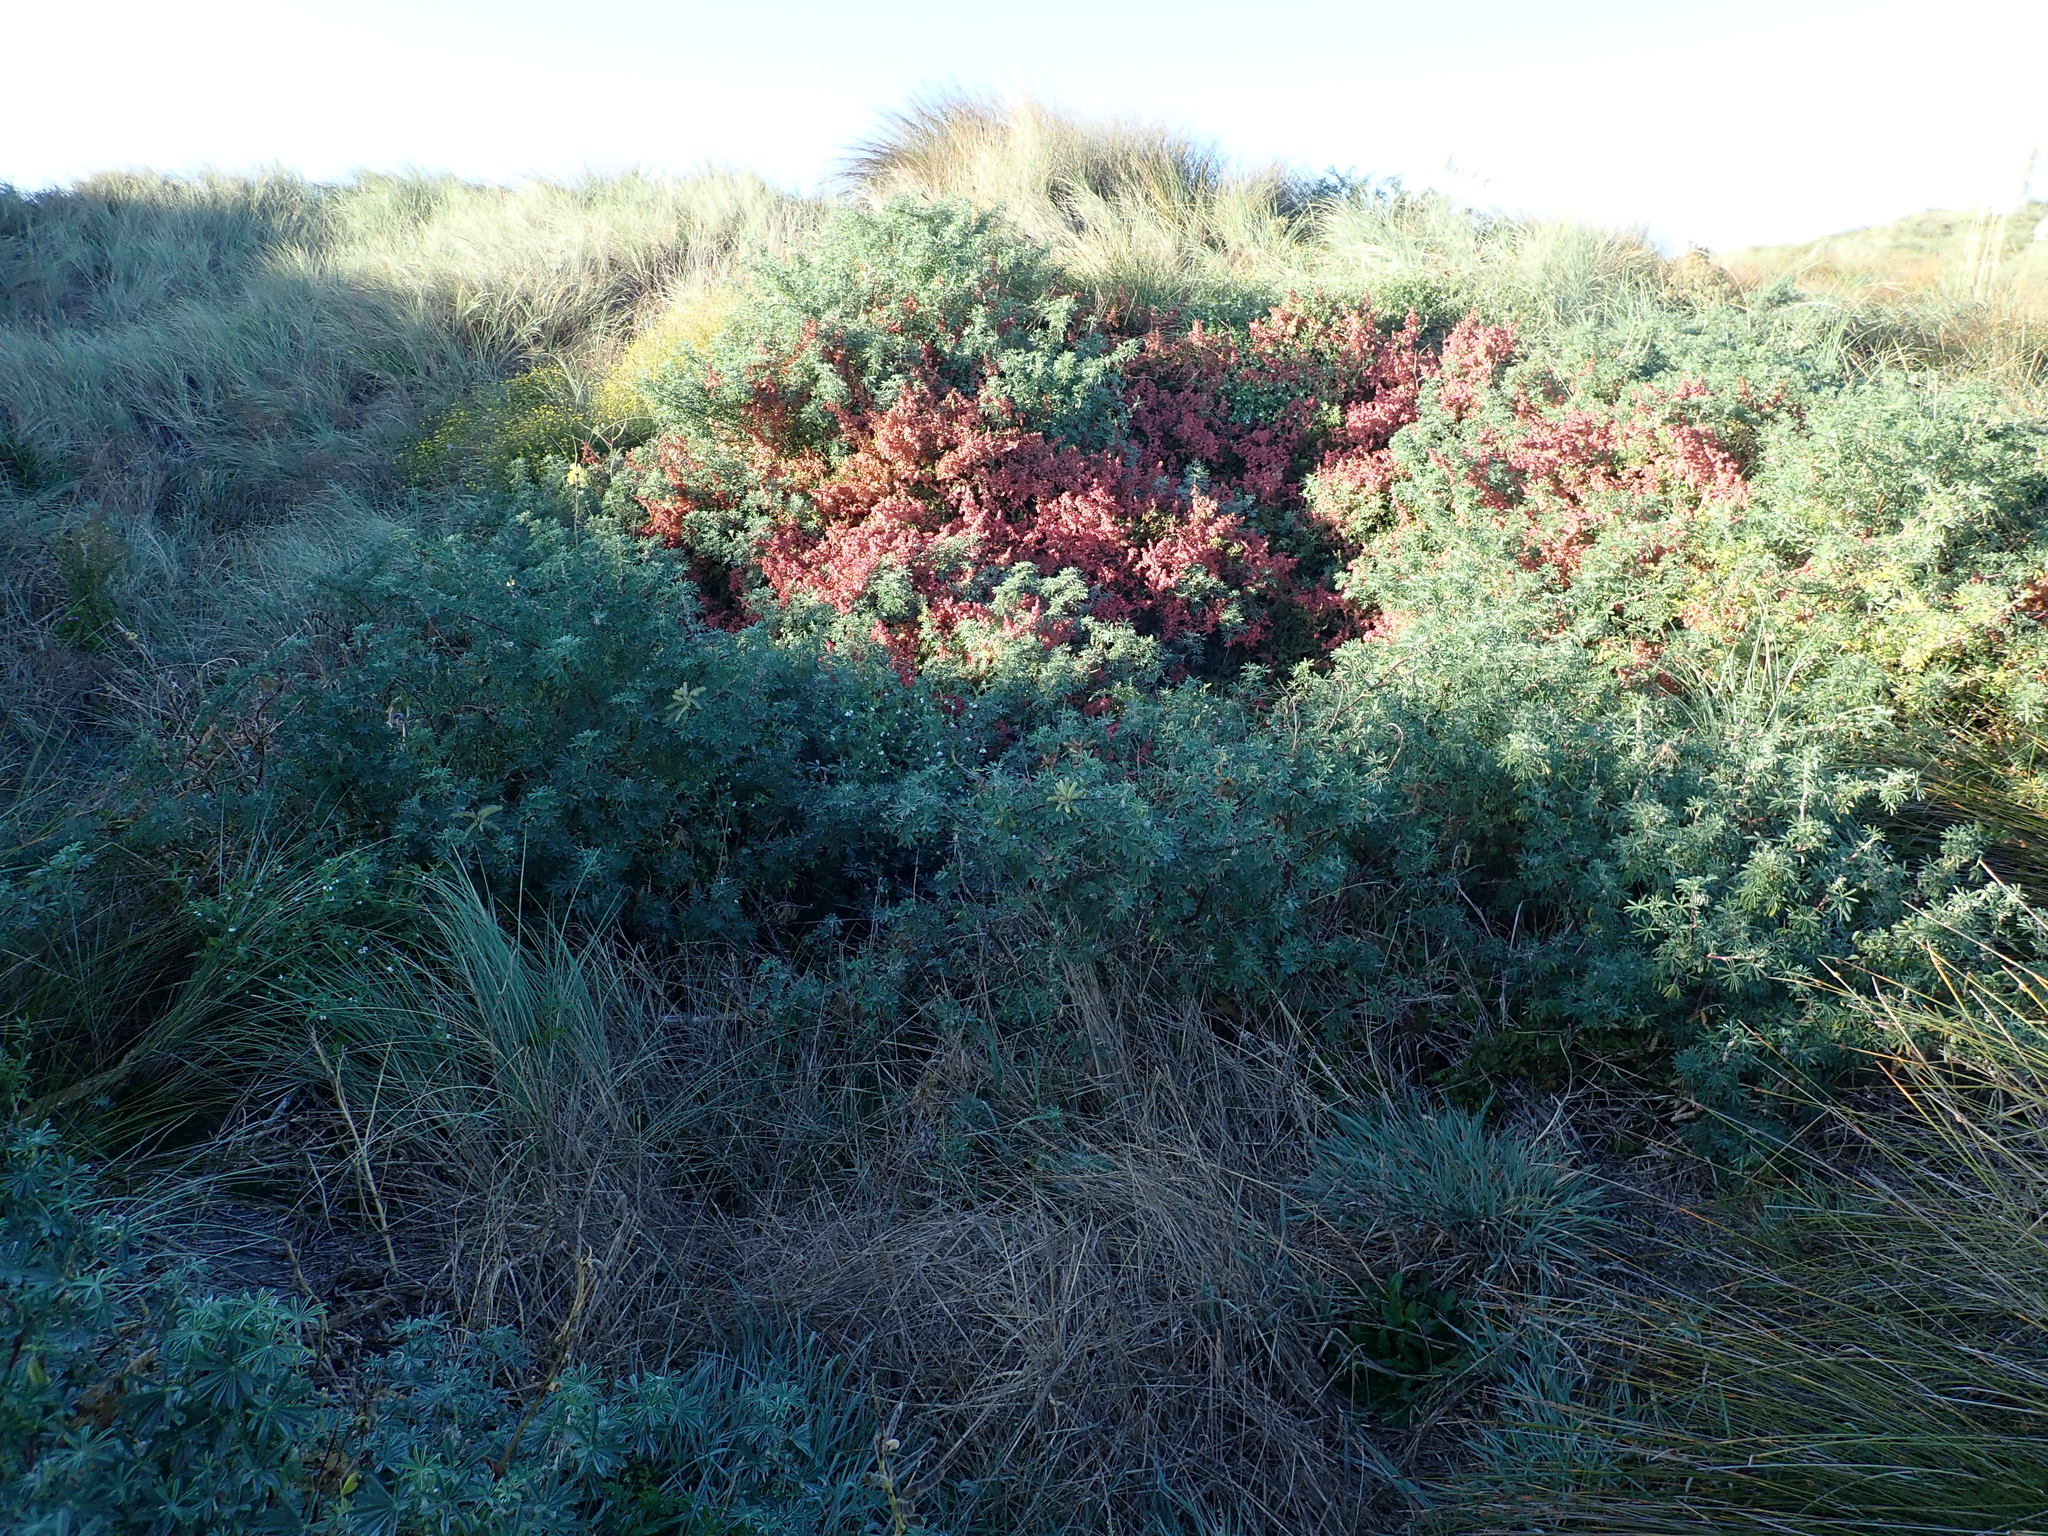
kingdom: Plantae
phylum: Tracheophyta
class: Magnoliopsida
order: Fabales
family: Fabaceae
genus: Lupinus
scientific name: Lupinus arboreus
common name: Yellow bush lupine
